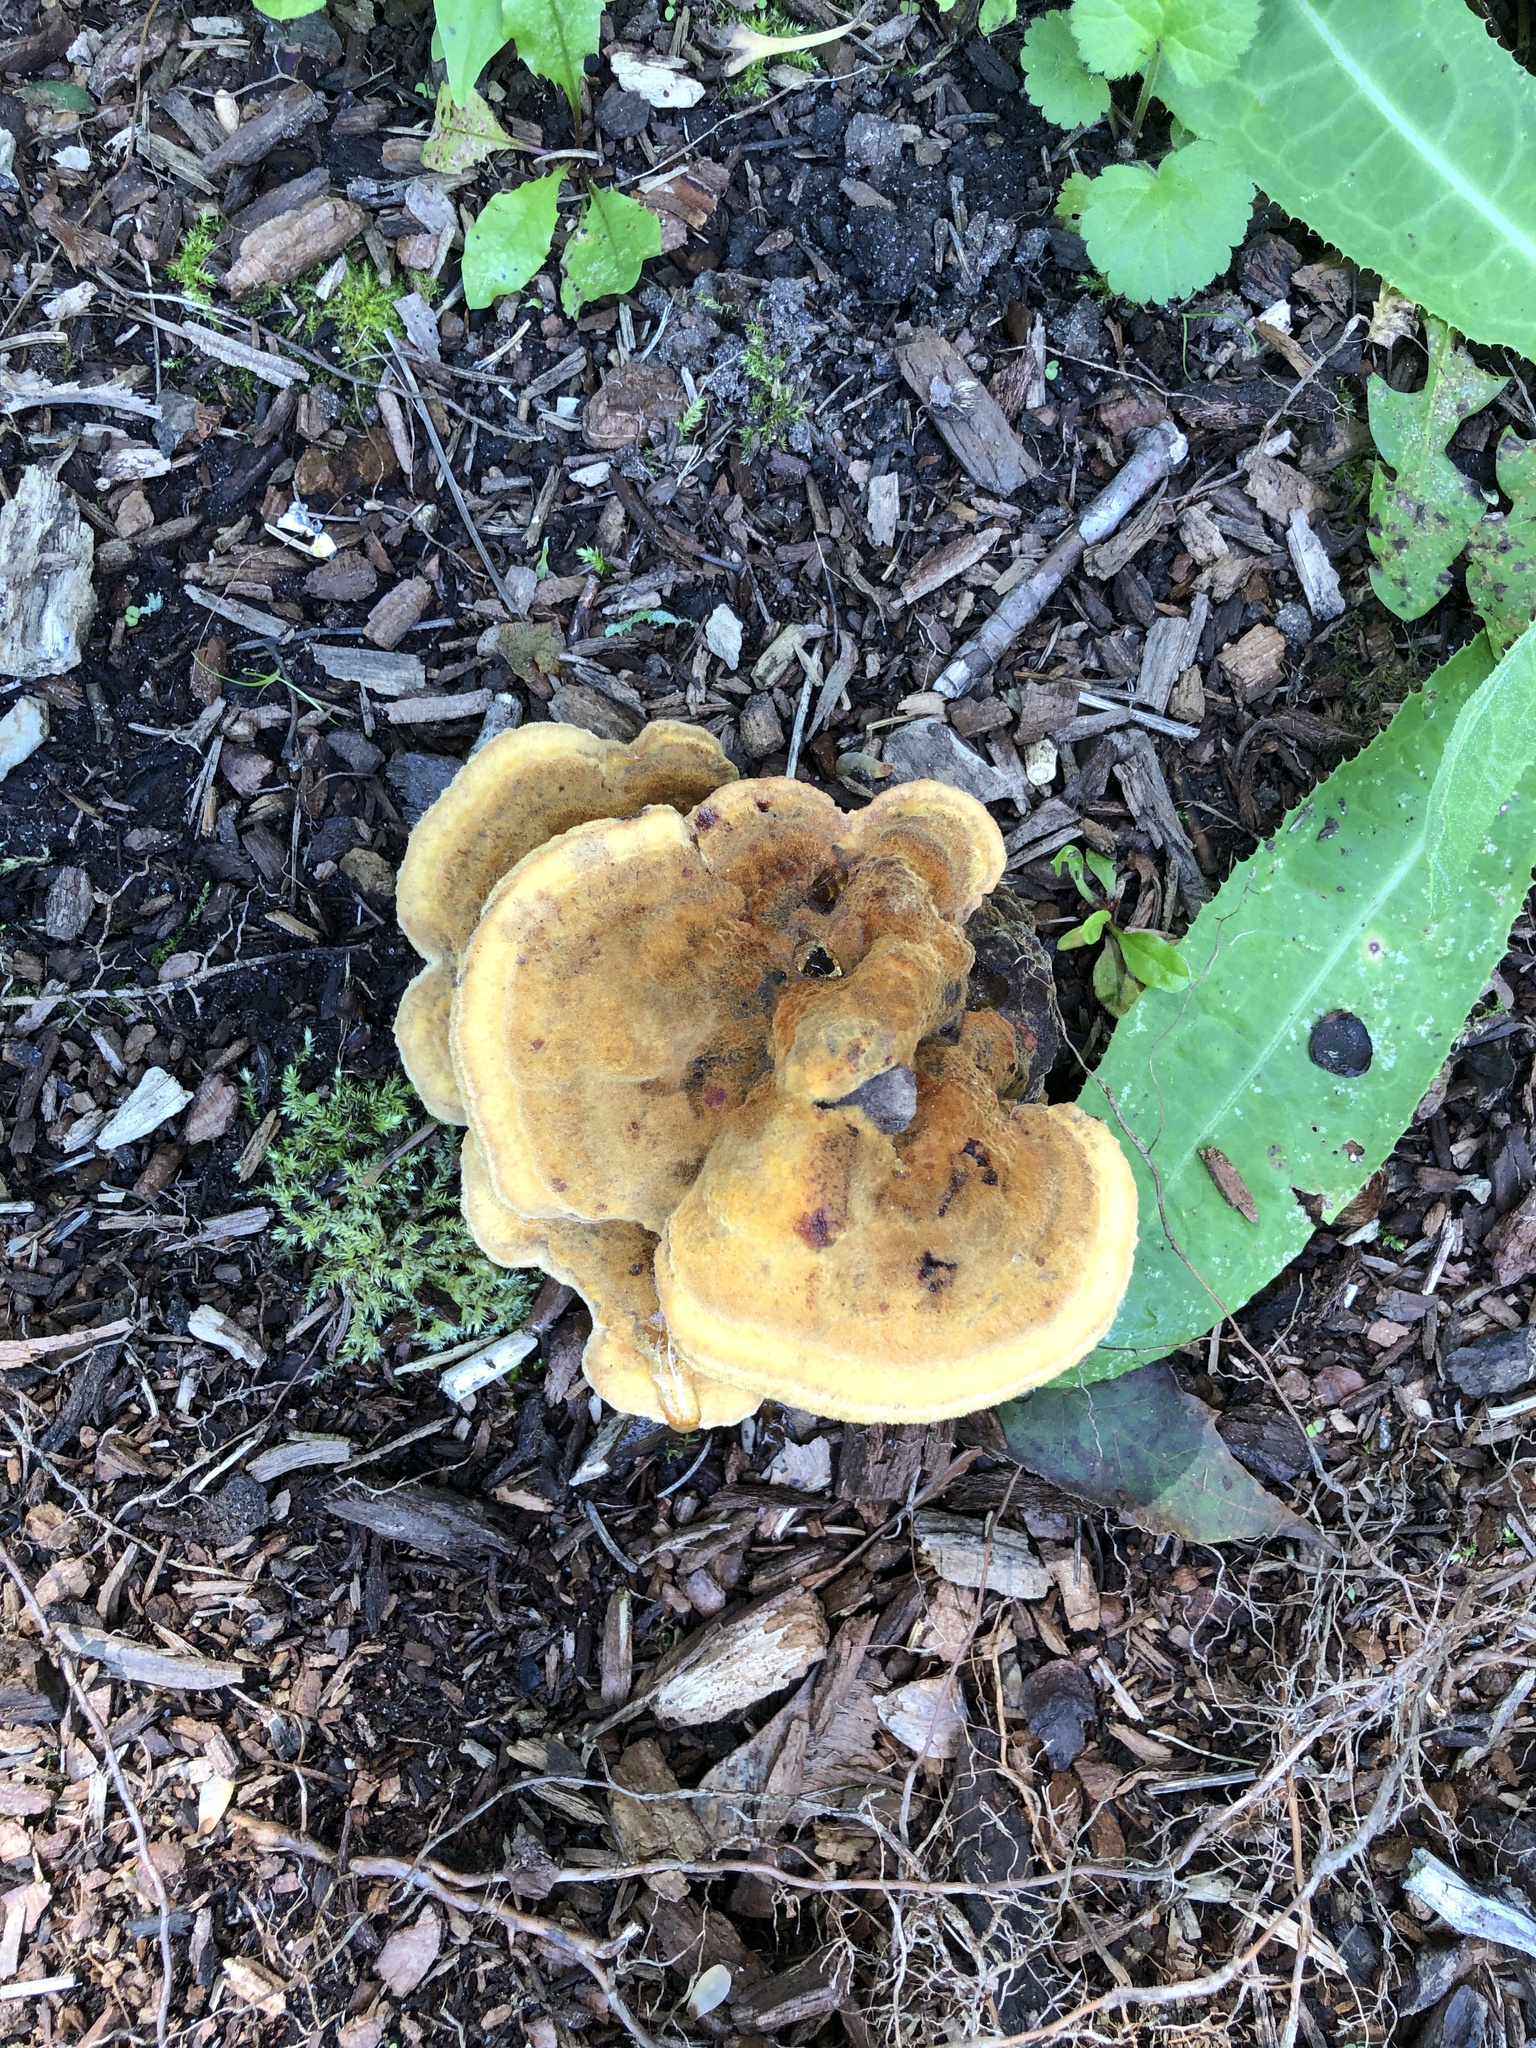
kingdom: Fungi
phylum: Basidiomycota
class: Agaricomycetes
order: Polyporales
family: Laetiporaceae
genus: Phaeolus
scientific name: Phaeolus schweinitzii
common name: Dyer's mazegill
